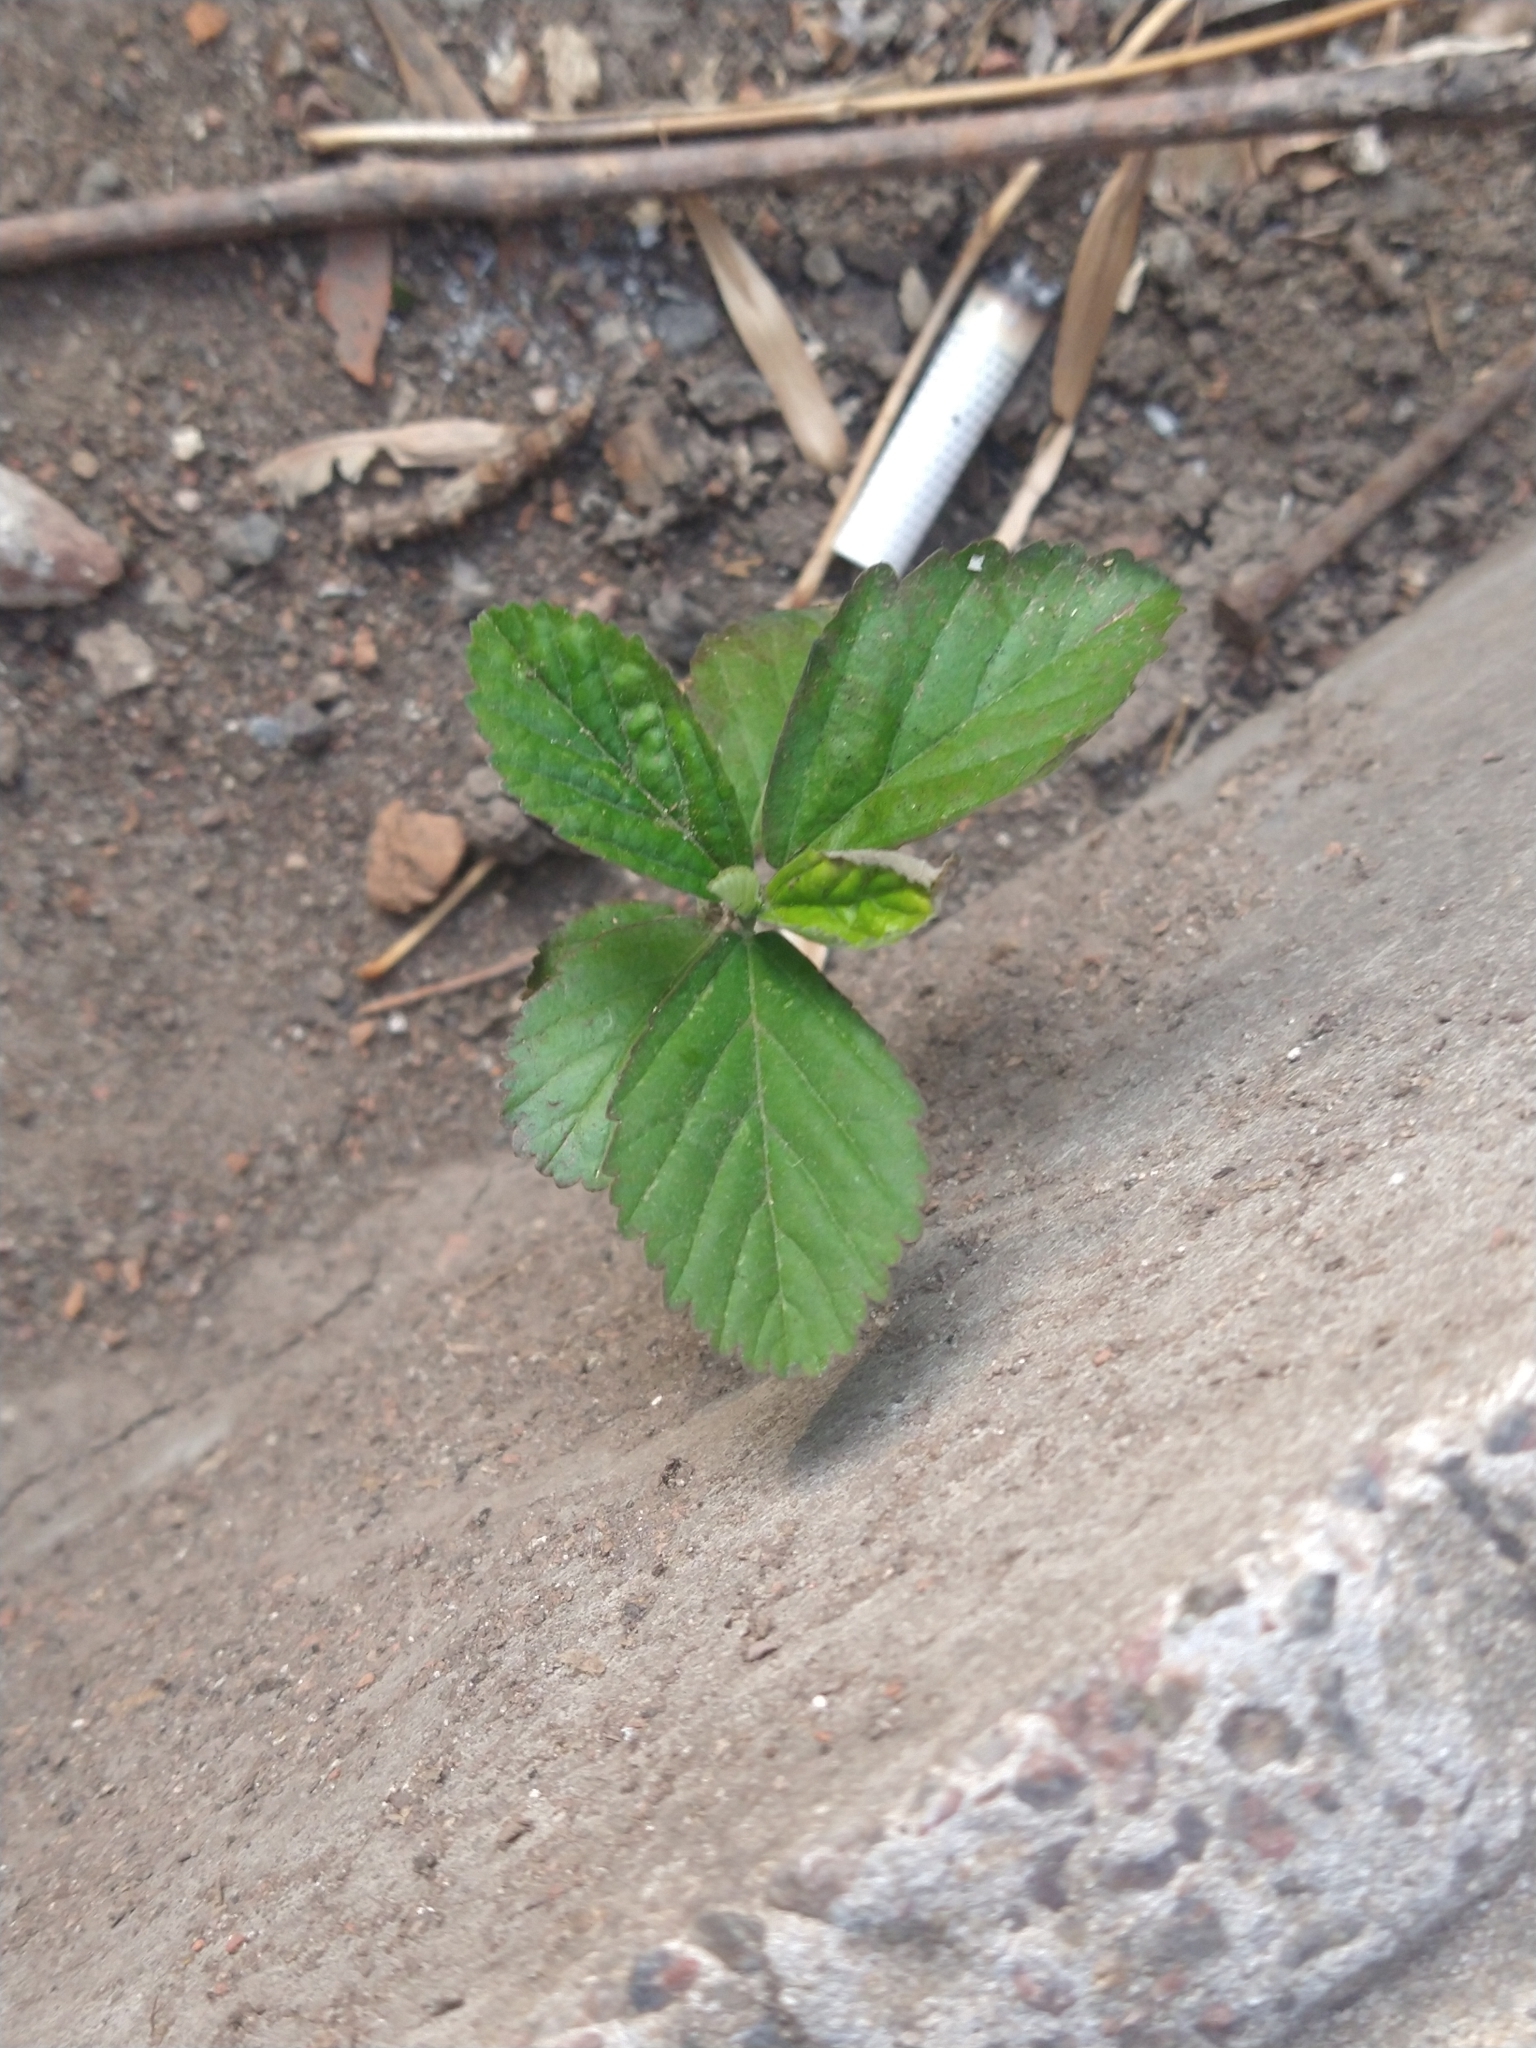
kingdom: Plantae
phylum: Tracheophyta
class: Magnoliopsida
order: Malvales
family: Malvaceae
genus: Sida
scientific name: Sida rhombifolia
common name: Queensland-hemp
